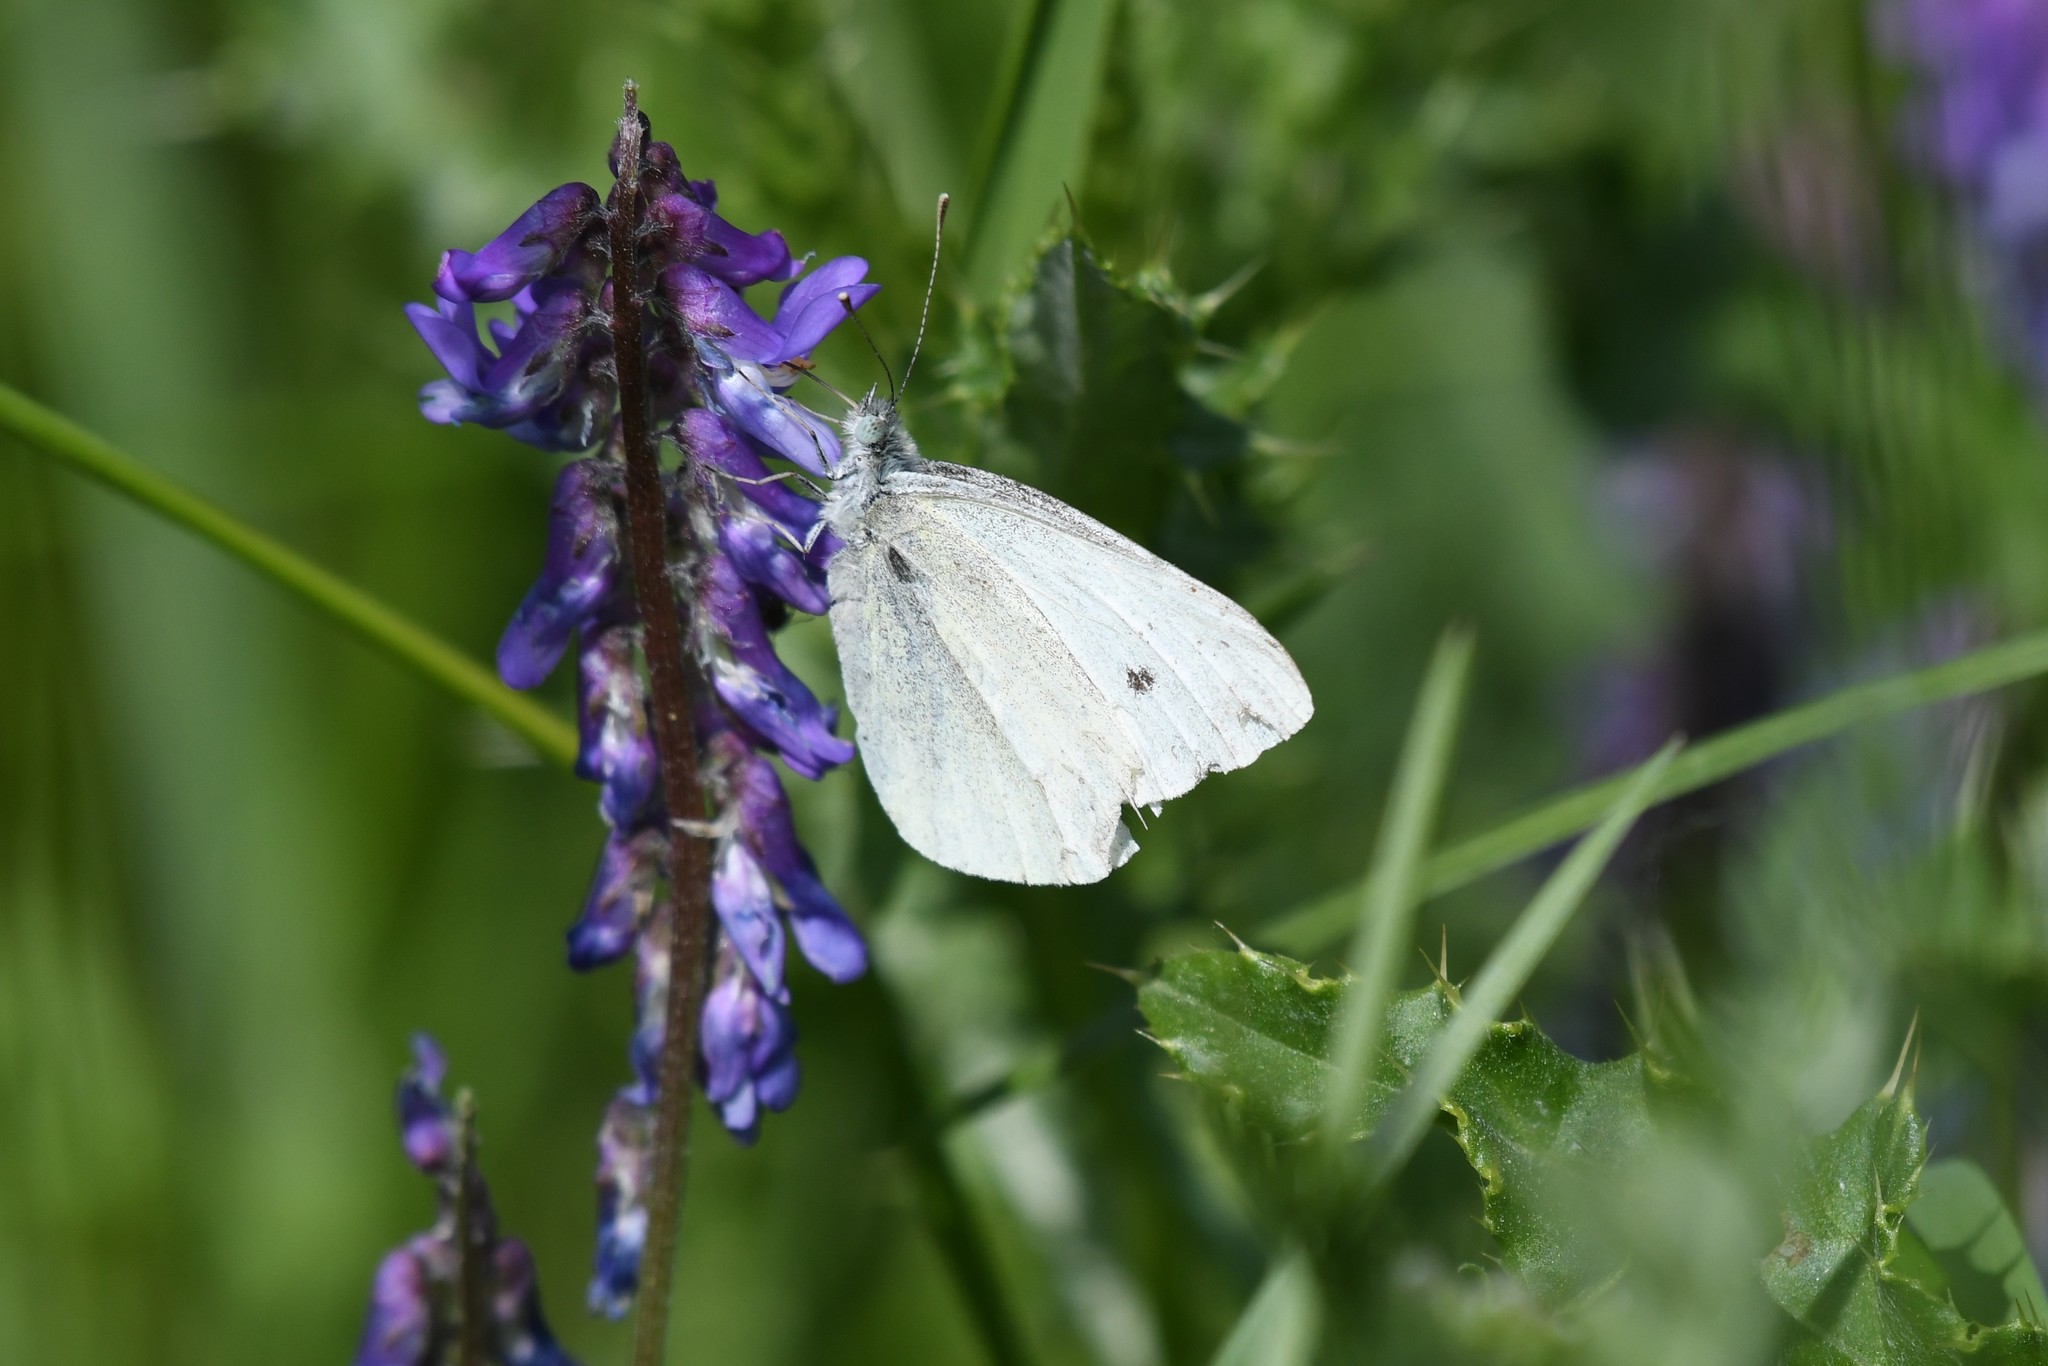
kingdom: Animalia
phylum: Arthropoda
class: Insecta
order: Lepidoptera
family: Pieridae
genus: Pieris
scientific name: Pieris rapae
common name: Small white
